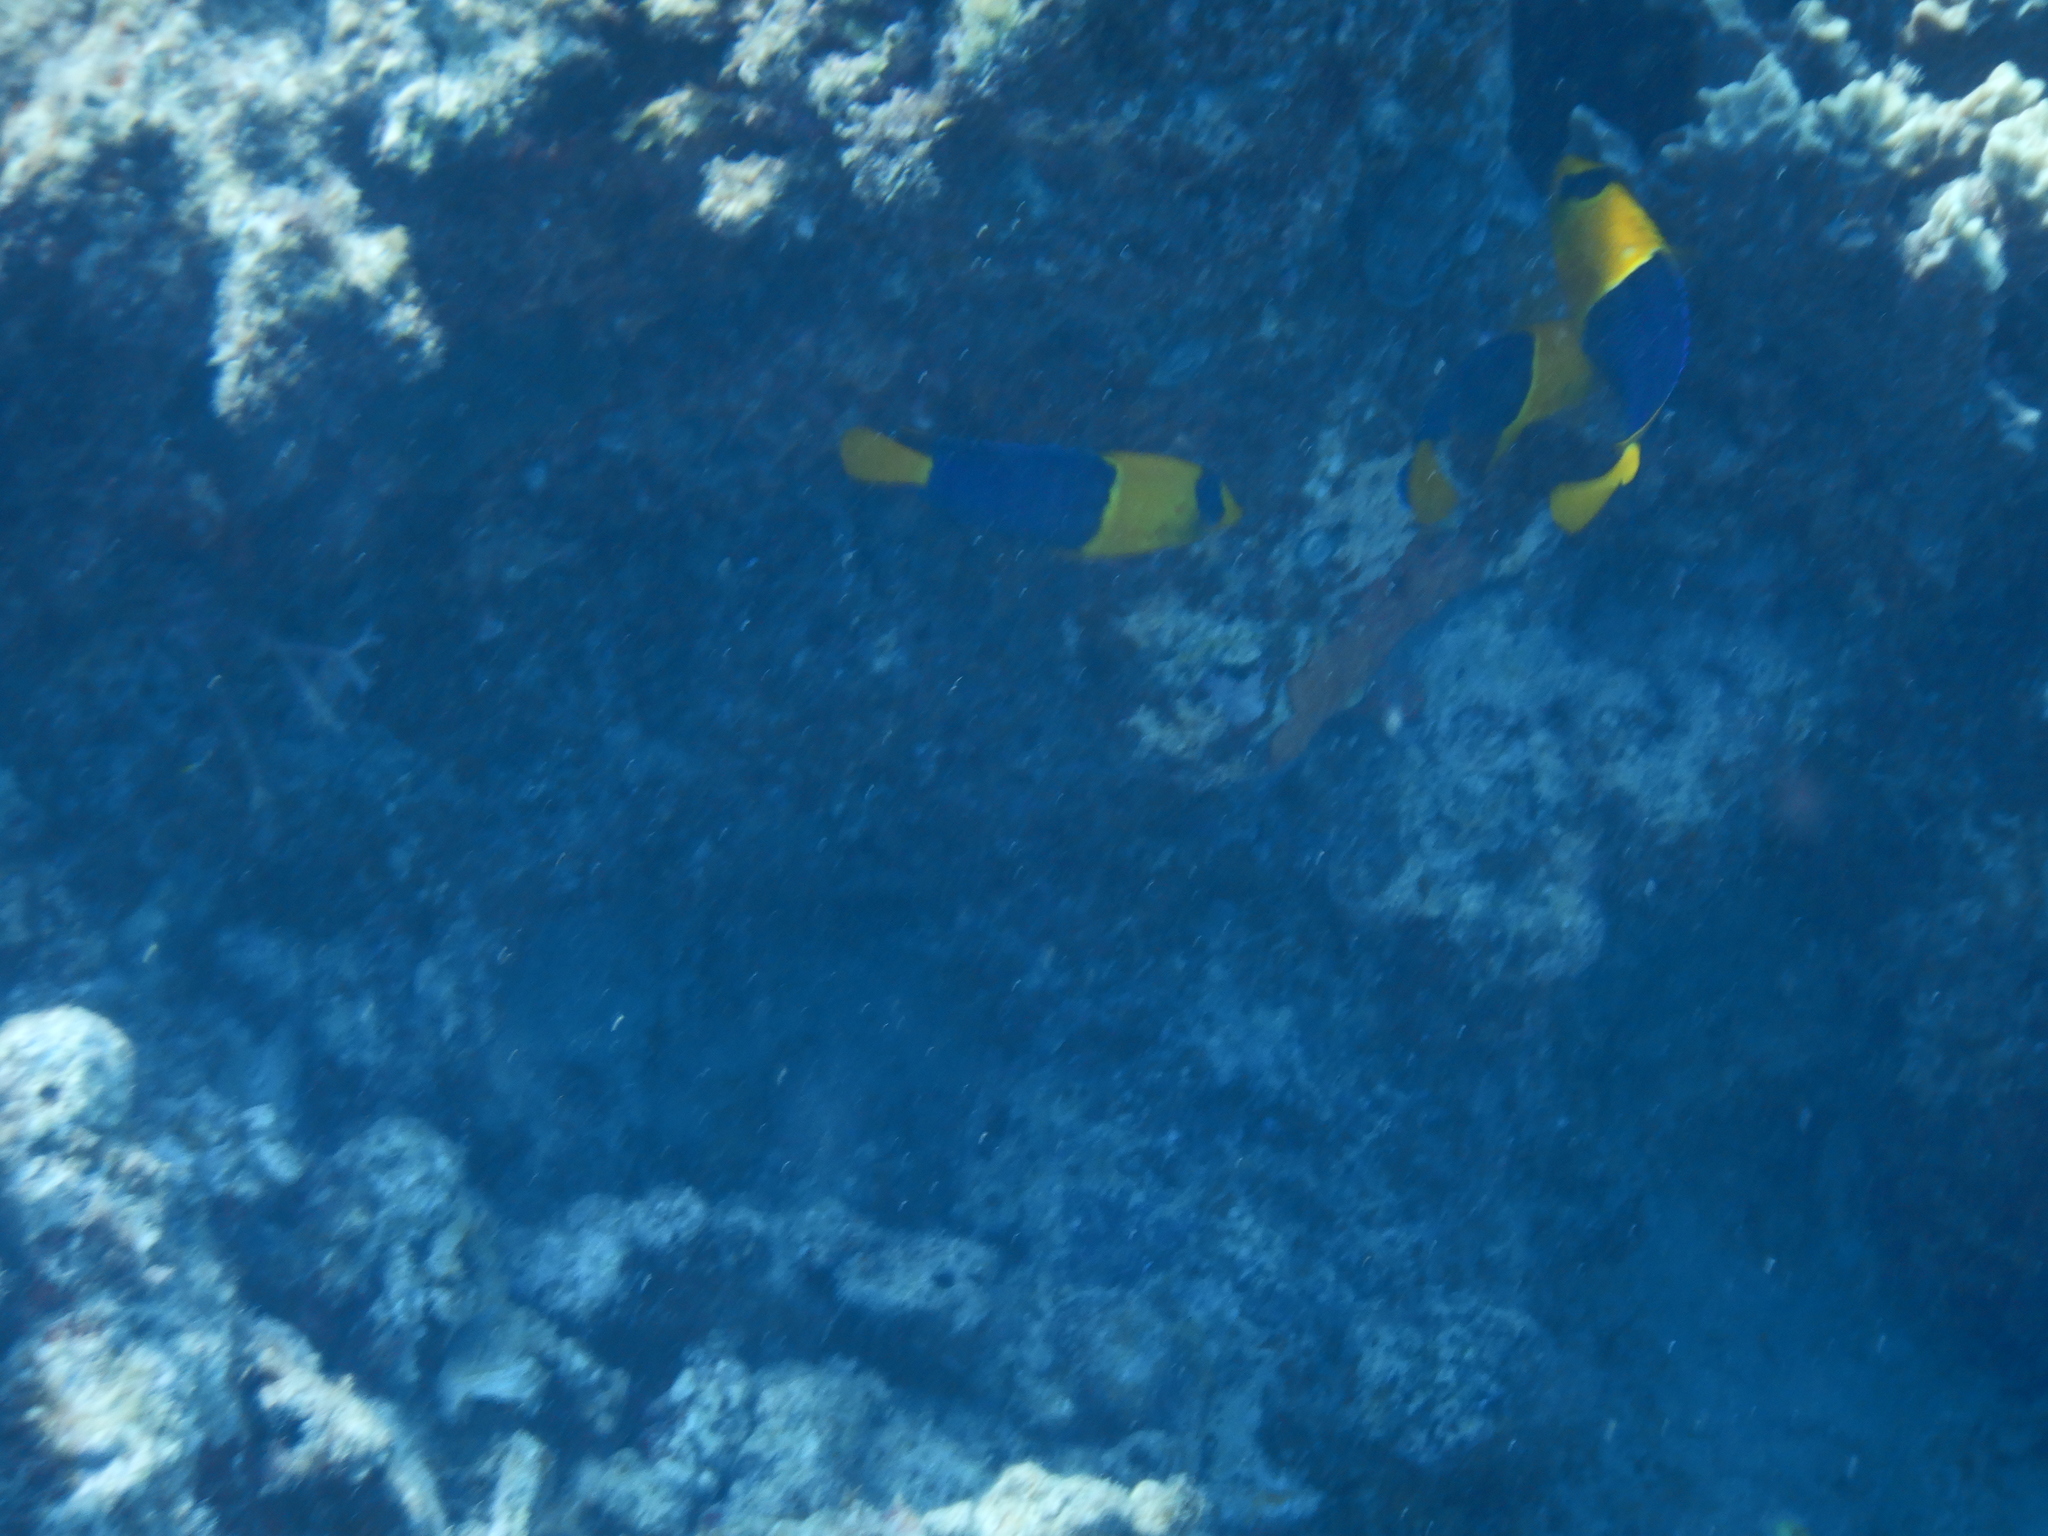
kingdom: Animalia
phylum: Chordata
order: Perciformes
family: Pomacanthidae
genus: Centropyge
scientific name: Centropyge bicolor
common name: Bicolor angelfish
